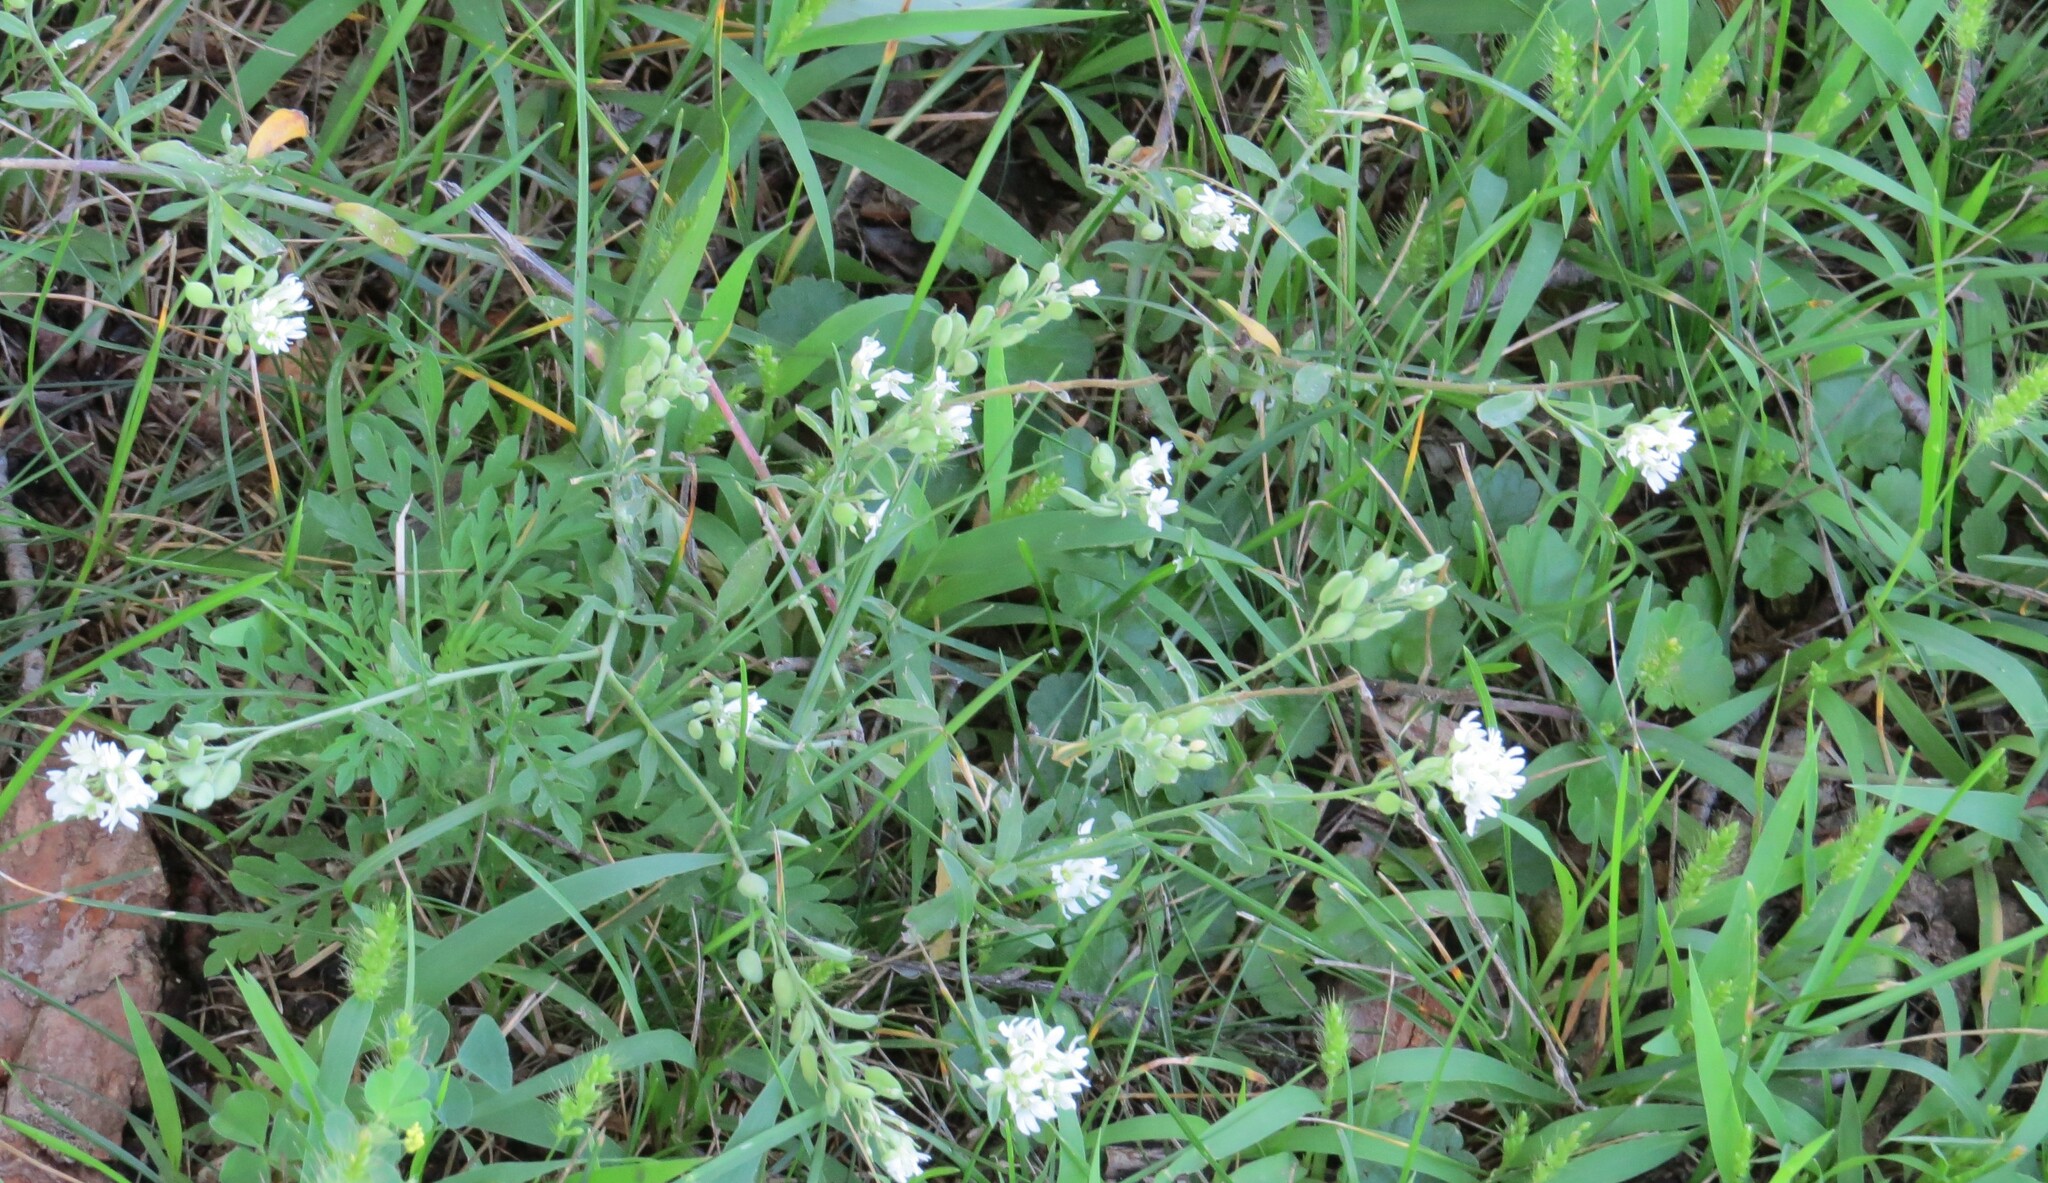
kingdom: Plantae
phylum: Tracheophyta
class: Magnoliopsida
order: Brassicales
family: Brassicaceae
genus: Berteroa
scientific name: Berteroa incana
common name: Hoary alison
